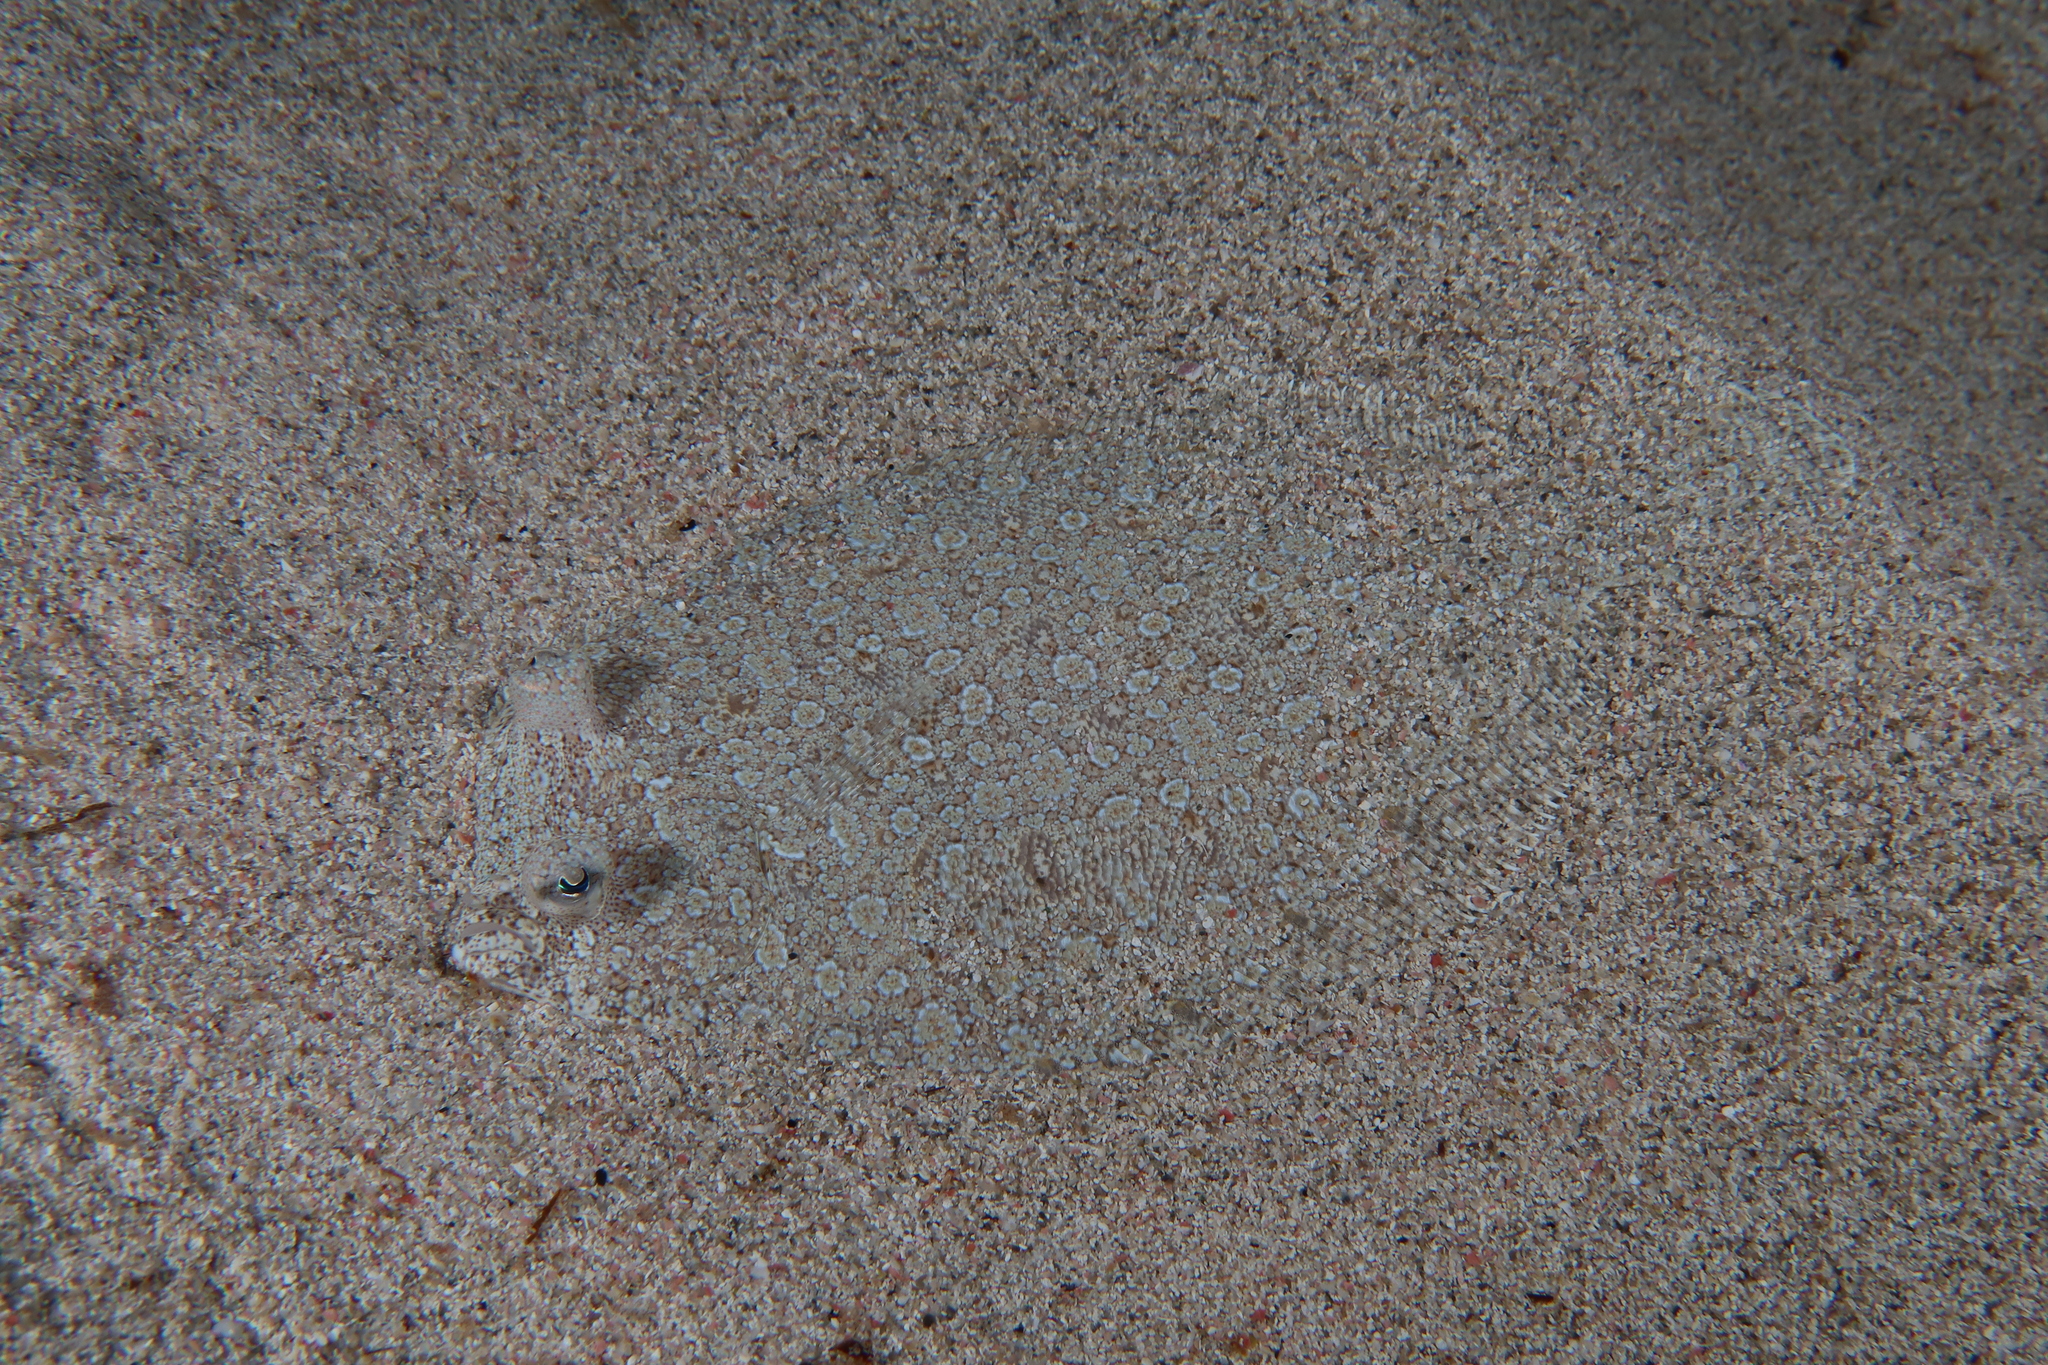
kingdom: Animalia
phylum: Chordata
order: Pleuronectiformes
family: Bothidae
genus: Bothus
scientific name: Bothus podas
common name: Wide-eyed flounder
